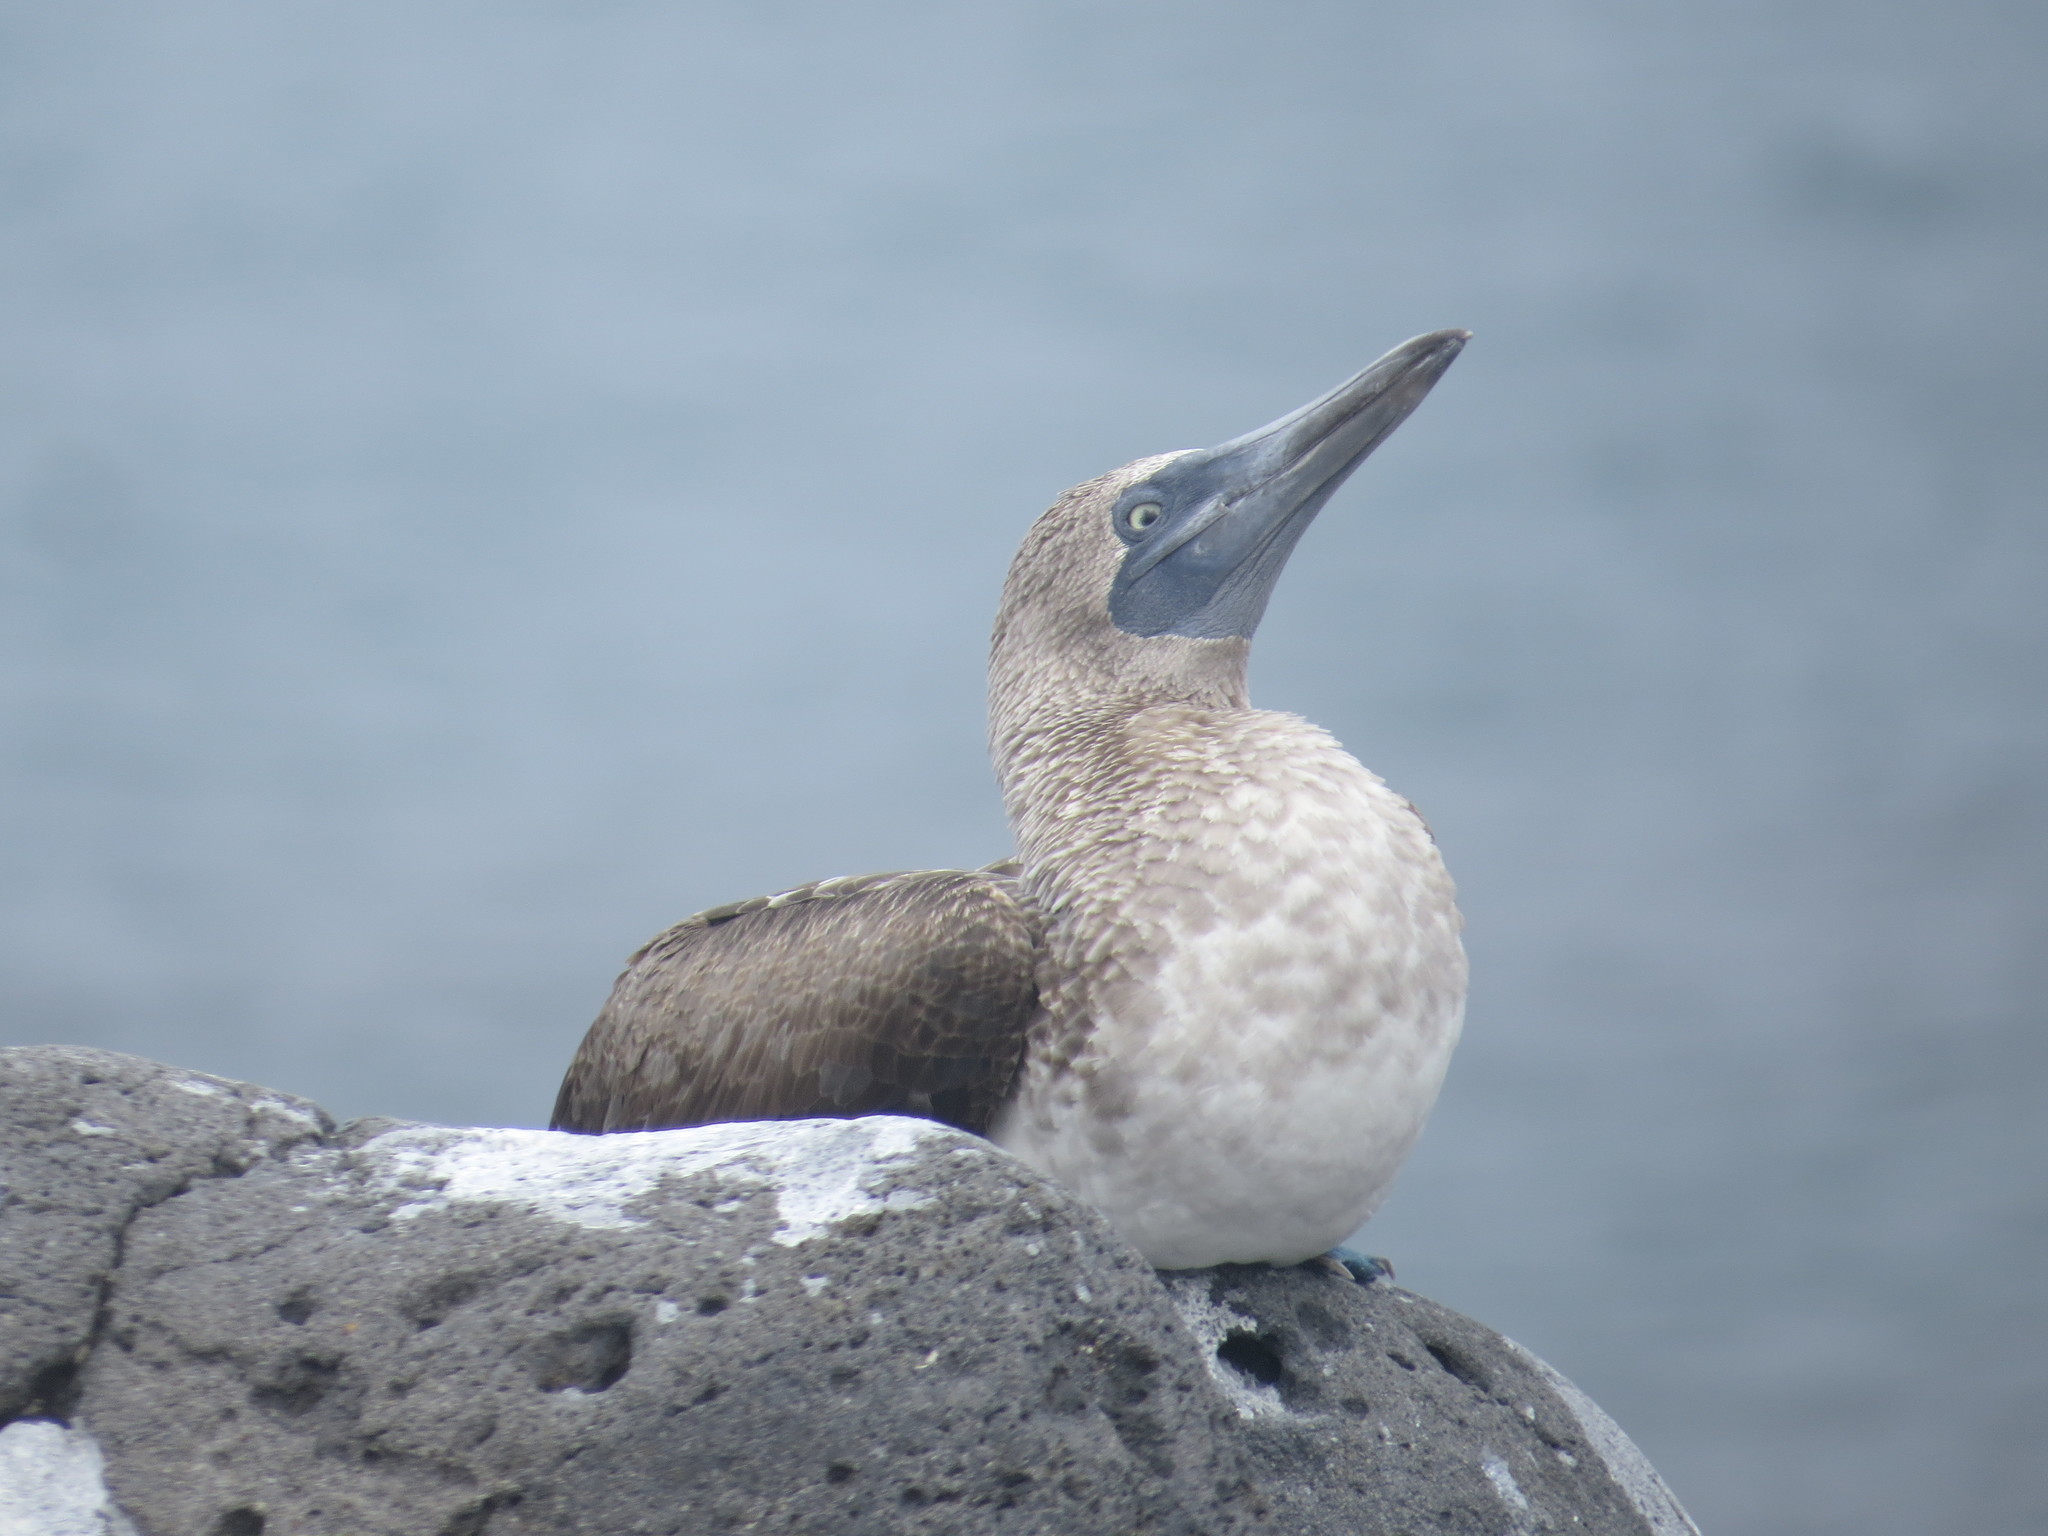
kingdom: Animalia
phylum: Chordata
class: Aves
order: Suliformes
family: Sulidae
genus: Sula
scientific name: Sula nebouxii
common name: Blue-footed booby
